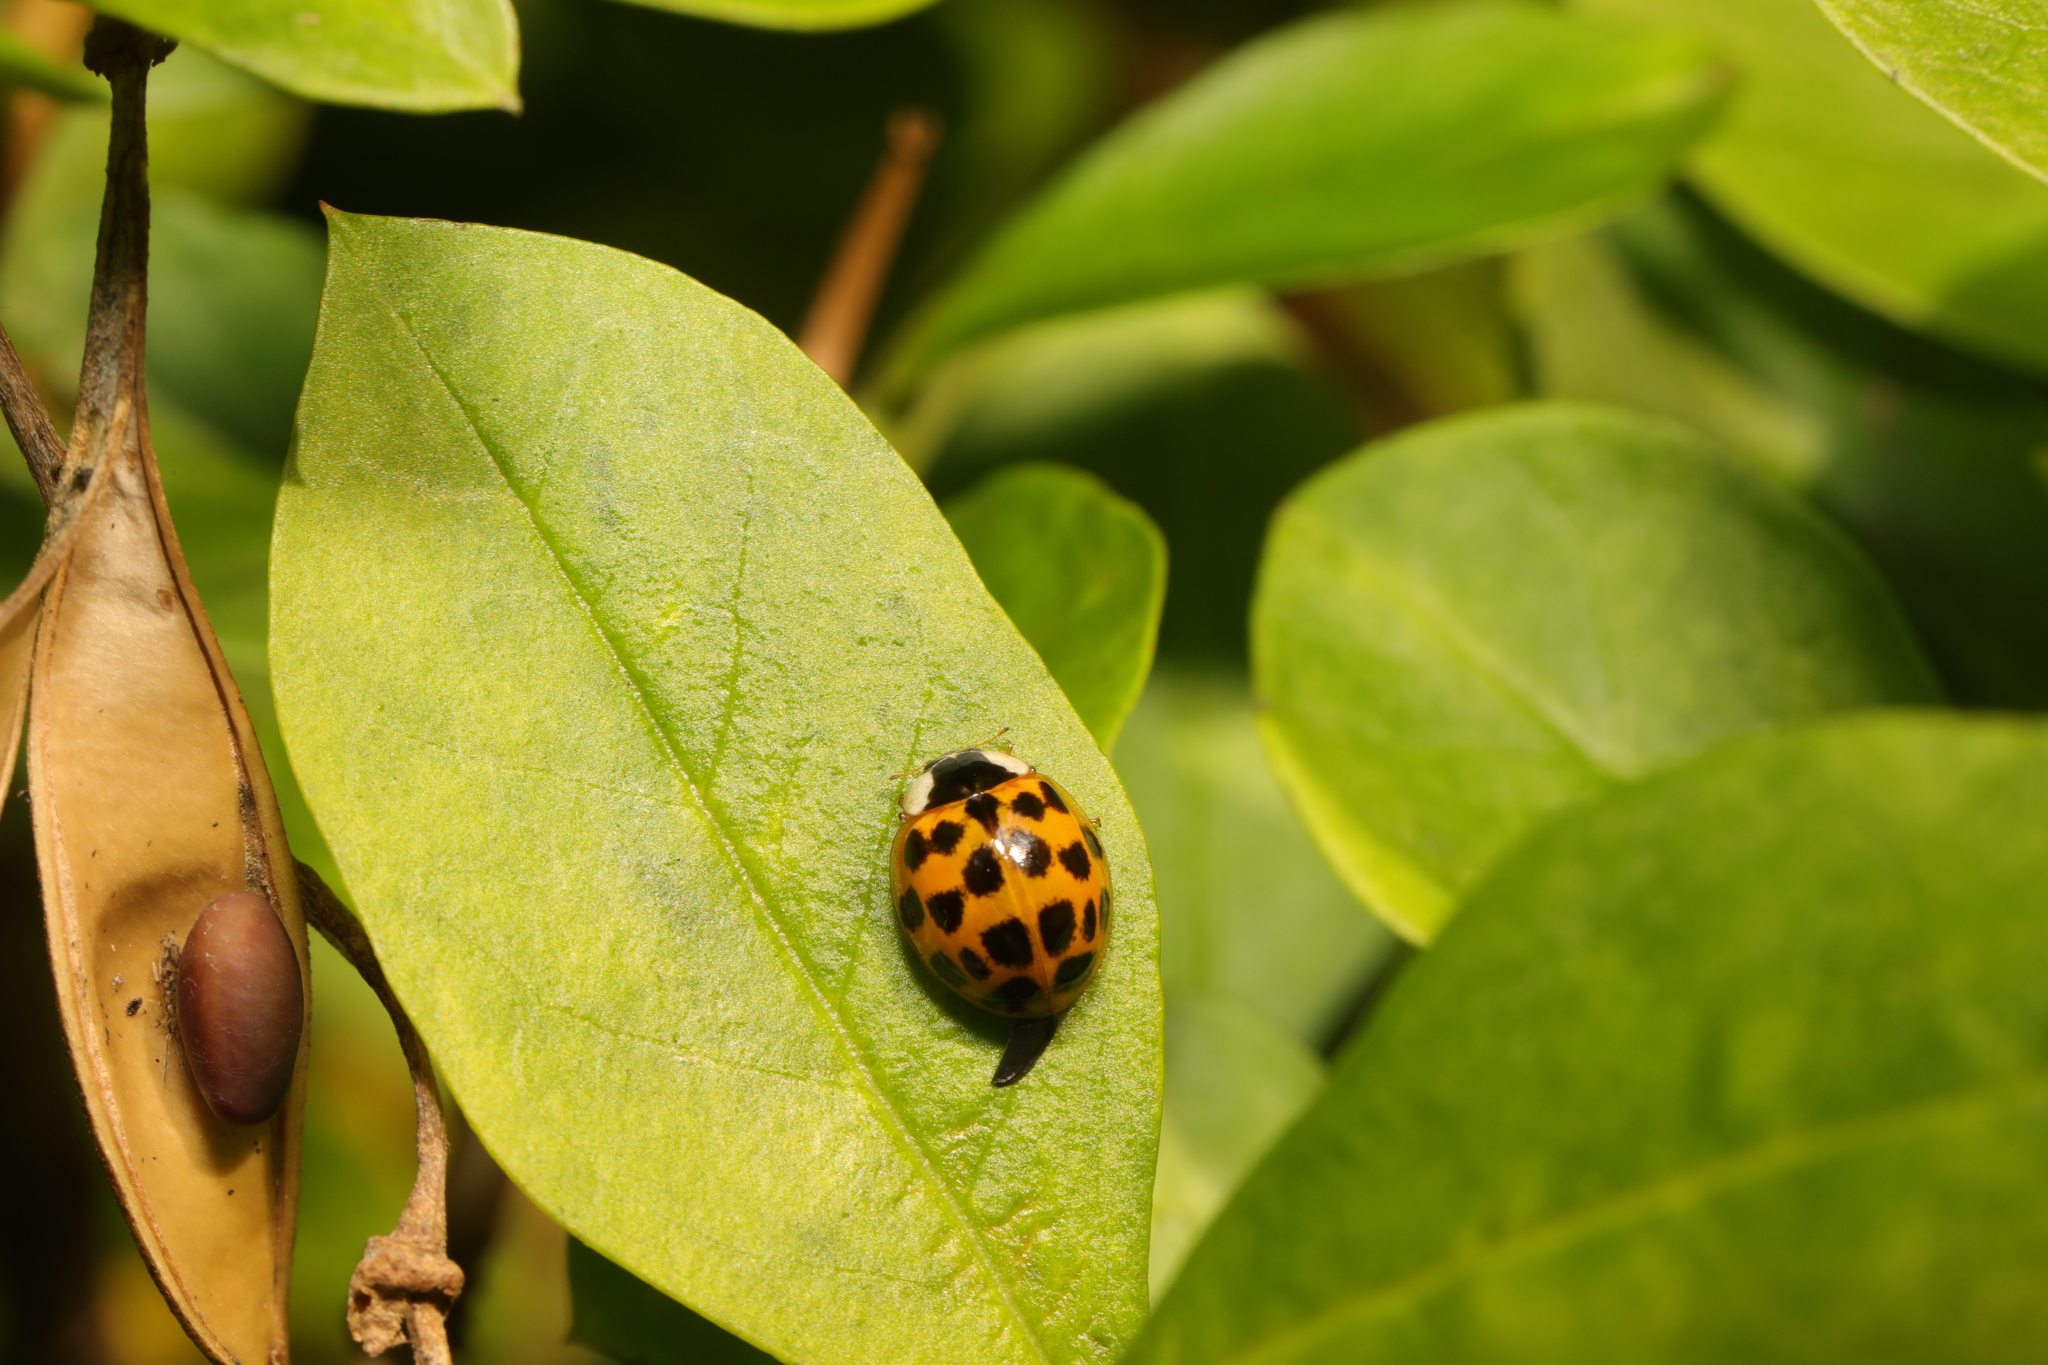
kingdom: Animalia
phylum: Arthropoda
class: Insecta
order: Coleoptera
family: Coccinellidae
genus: Harmonia
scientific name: Harmonia axyridis
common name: Harlequin ladybird
